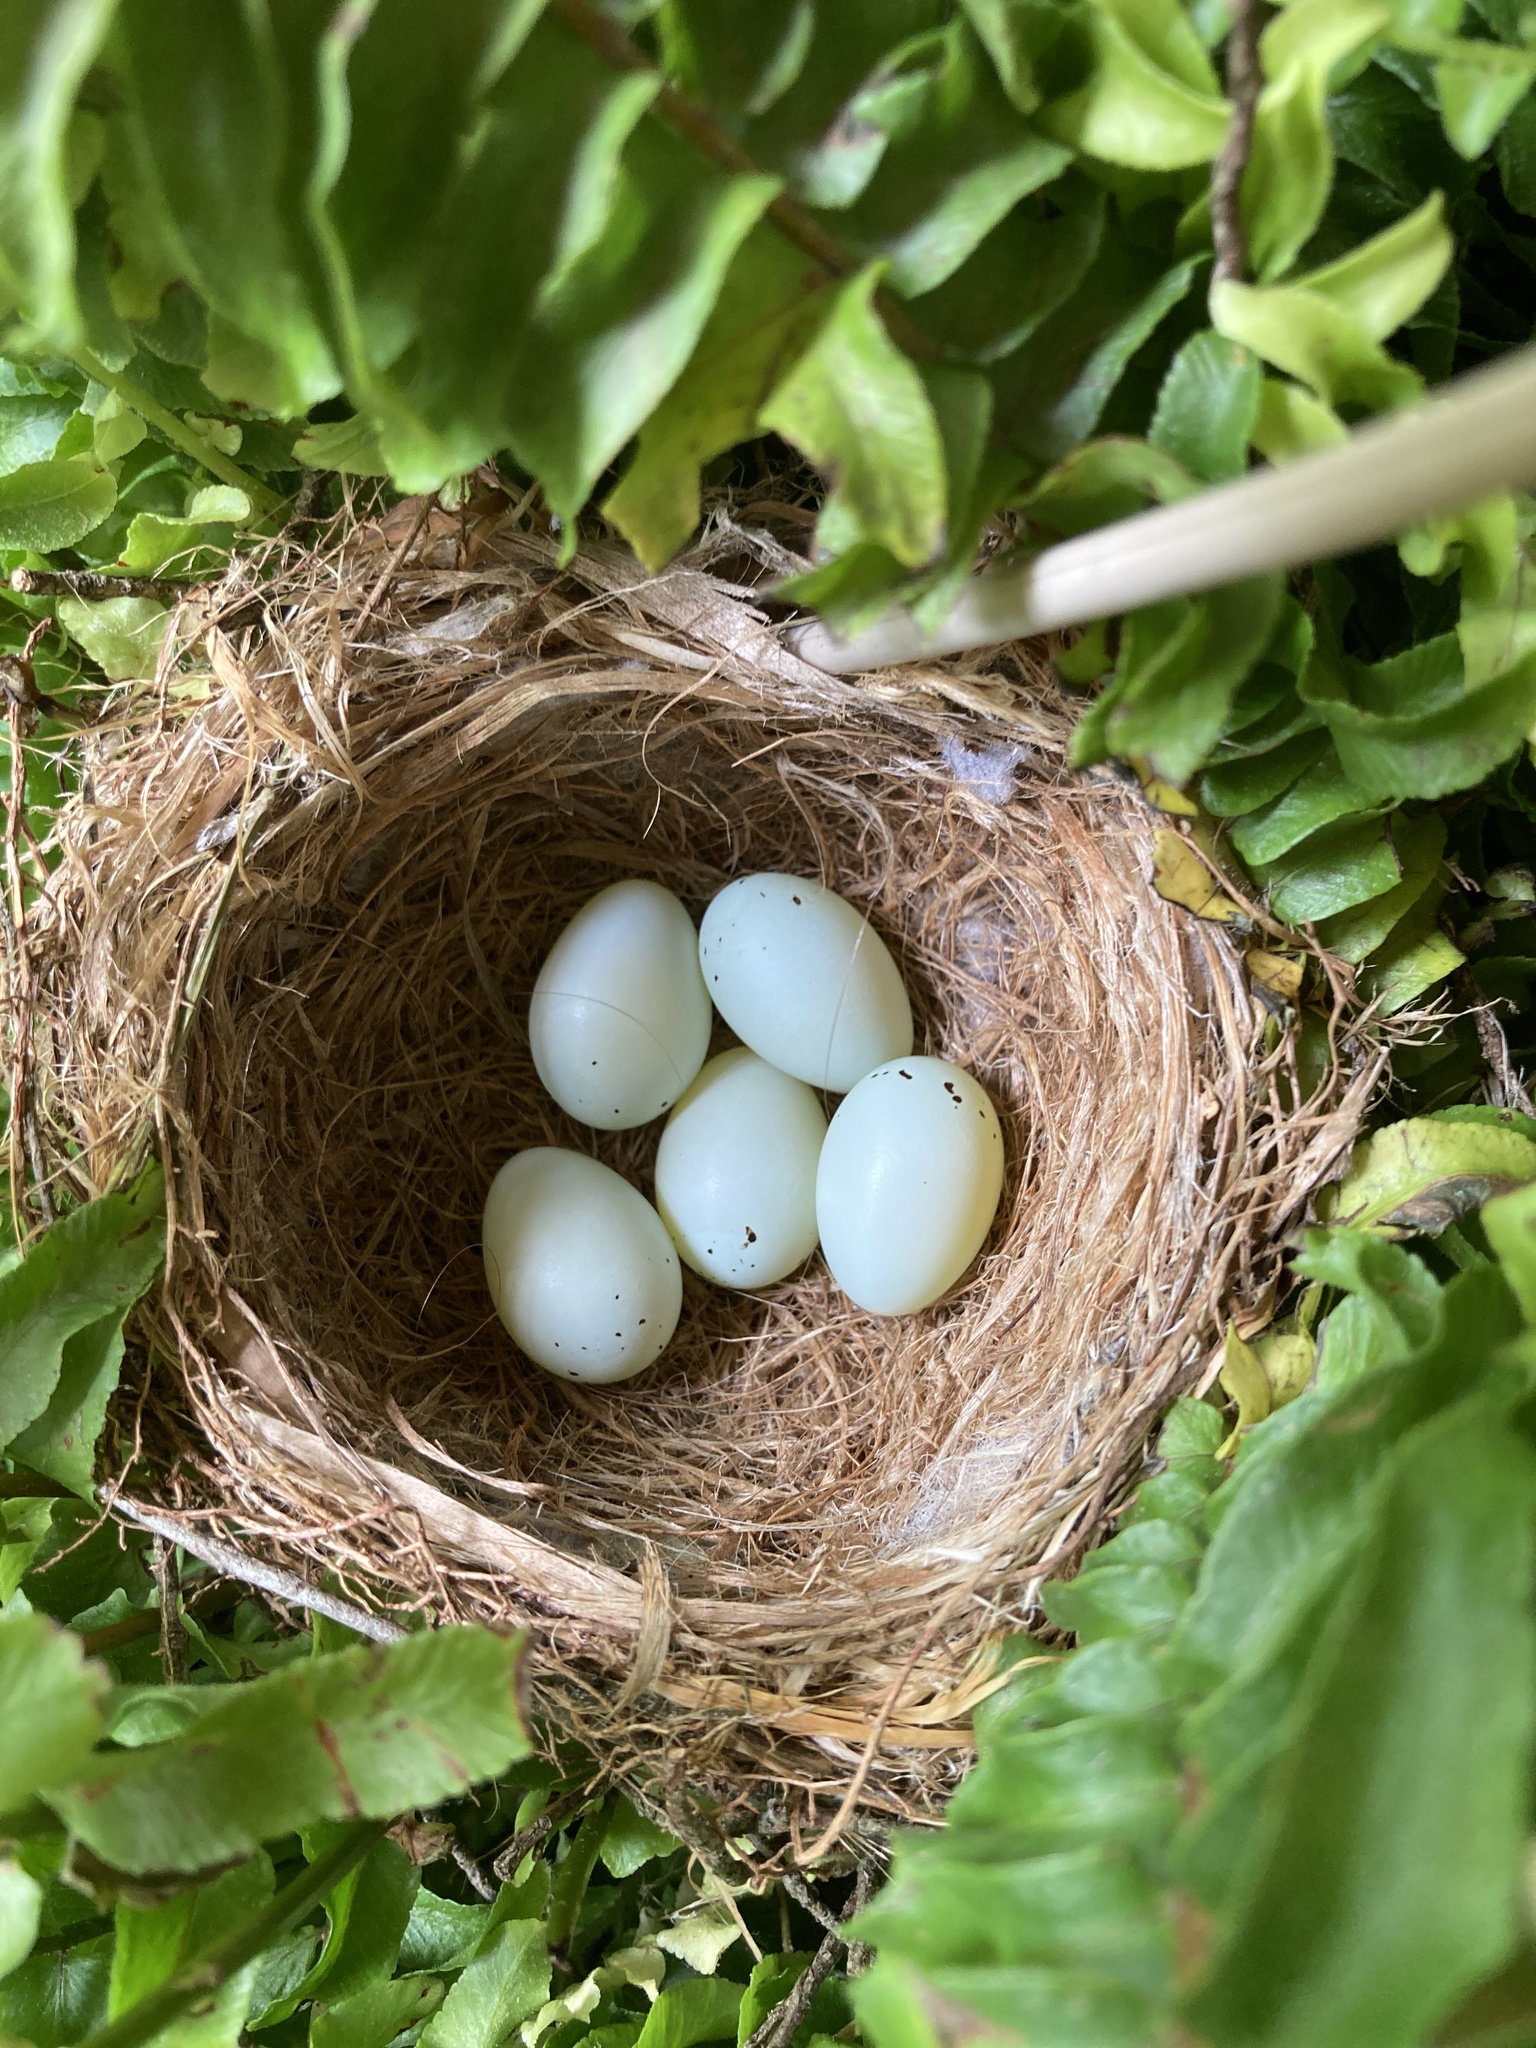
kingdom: Animalia
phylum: Chordata
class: Aves
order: Passeriformes
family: Fringillidae
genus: Haemorhous
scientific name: Haemorhous mexicanus
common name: House finch
